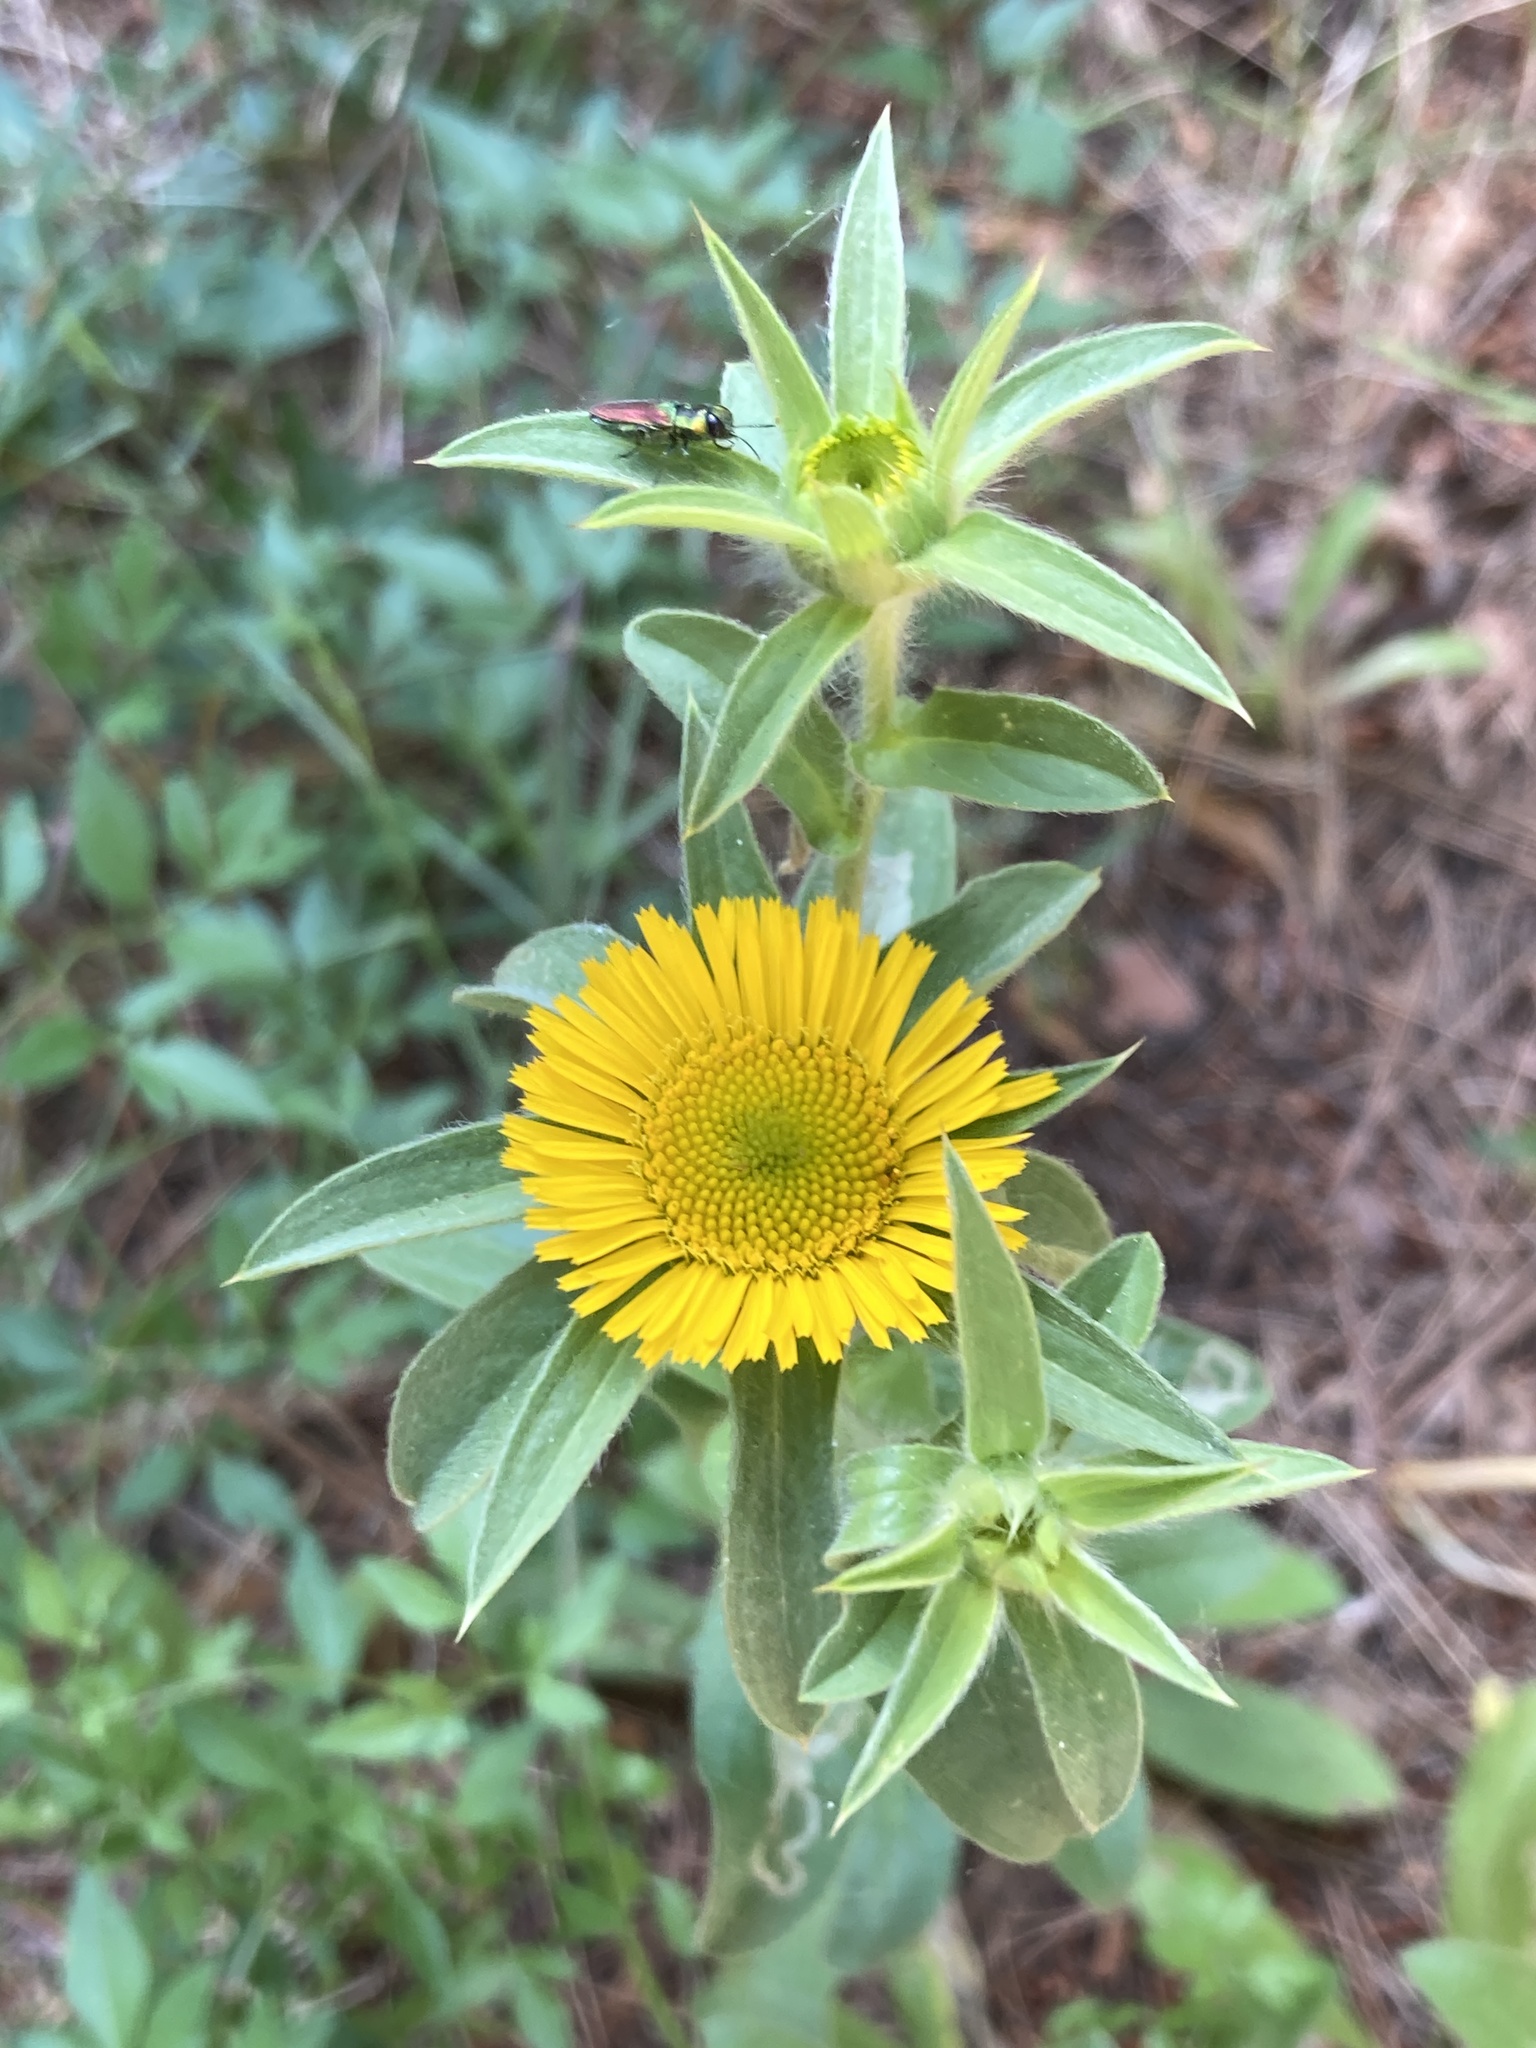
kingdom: Plantae
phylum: Tracheophyta
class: Magnoliopsida
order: Asterales
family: Asteraceae
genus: Pallenis
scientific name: Pallenis spinosa
